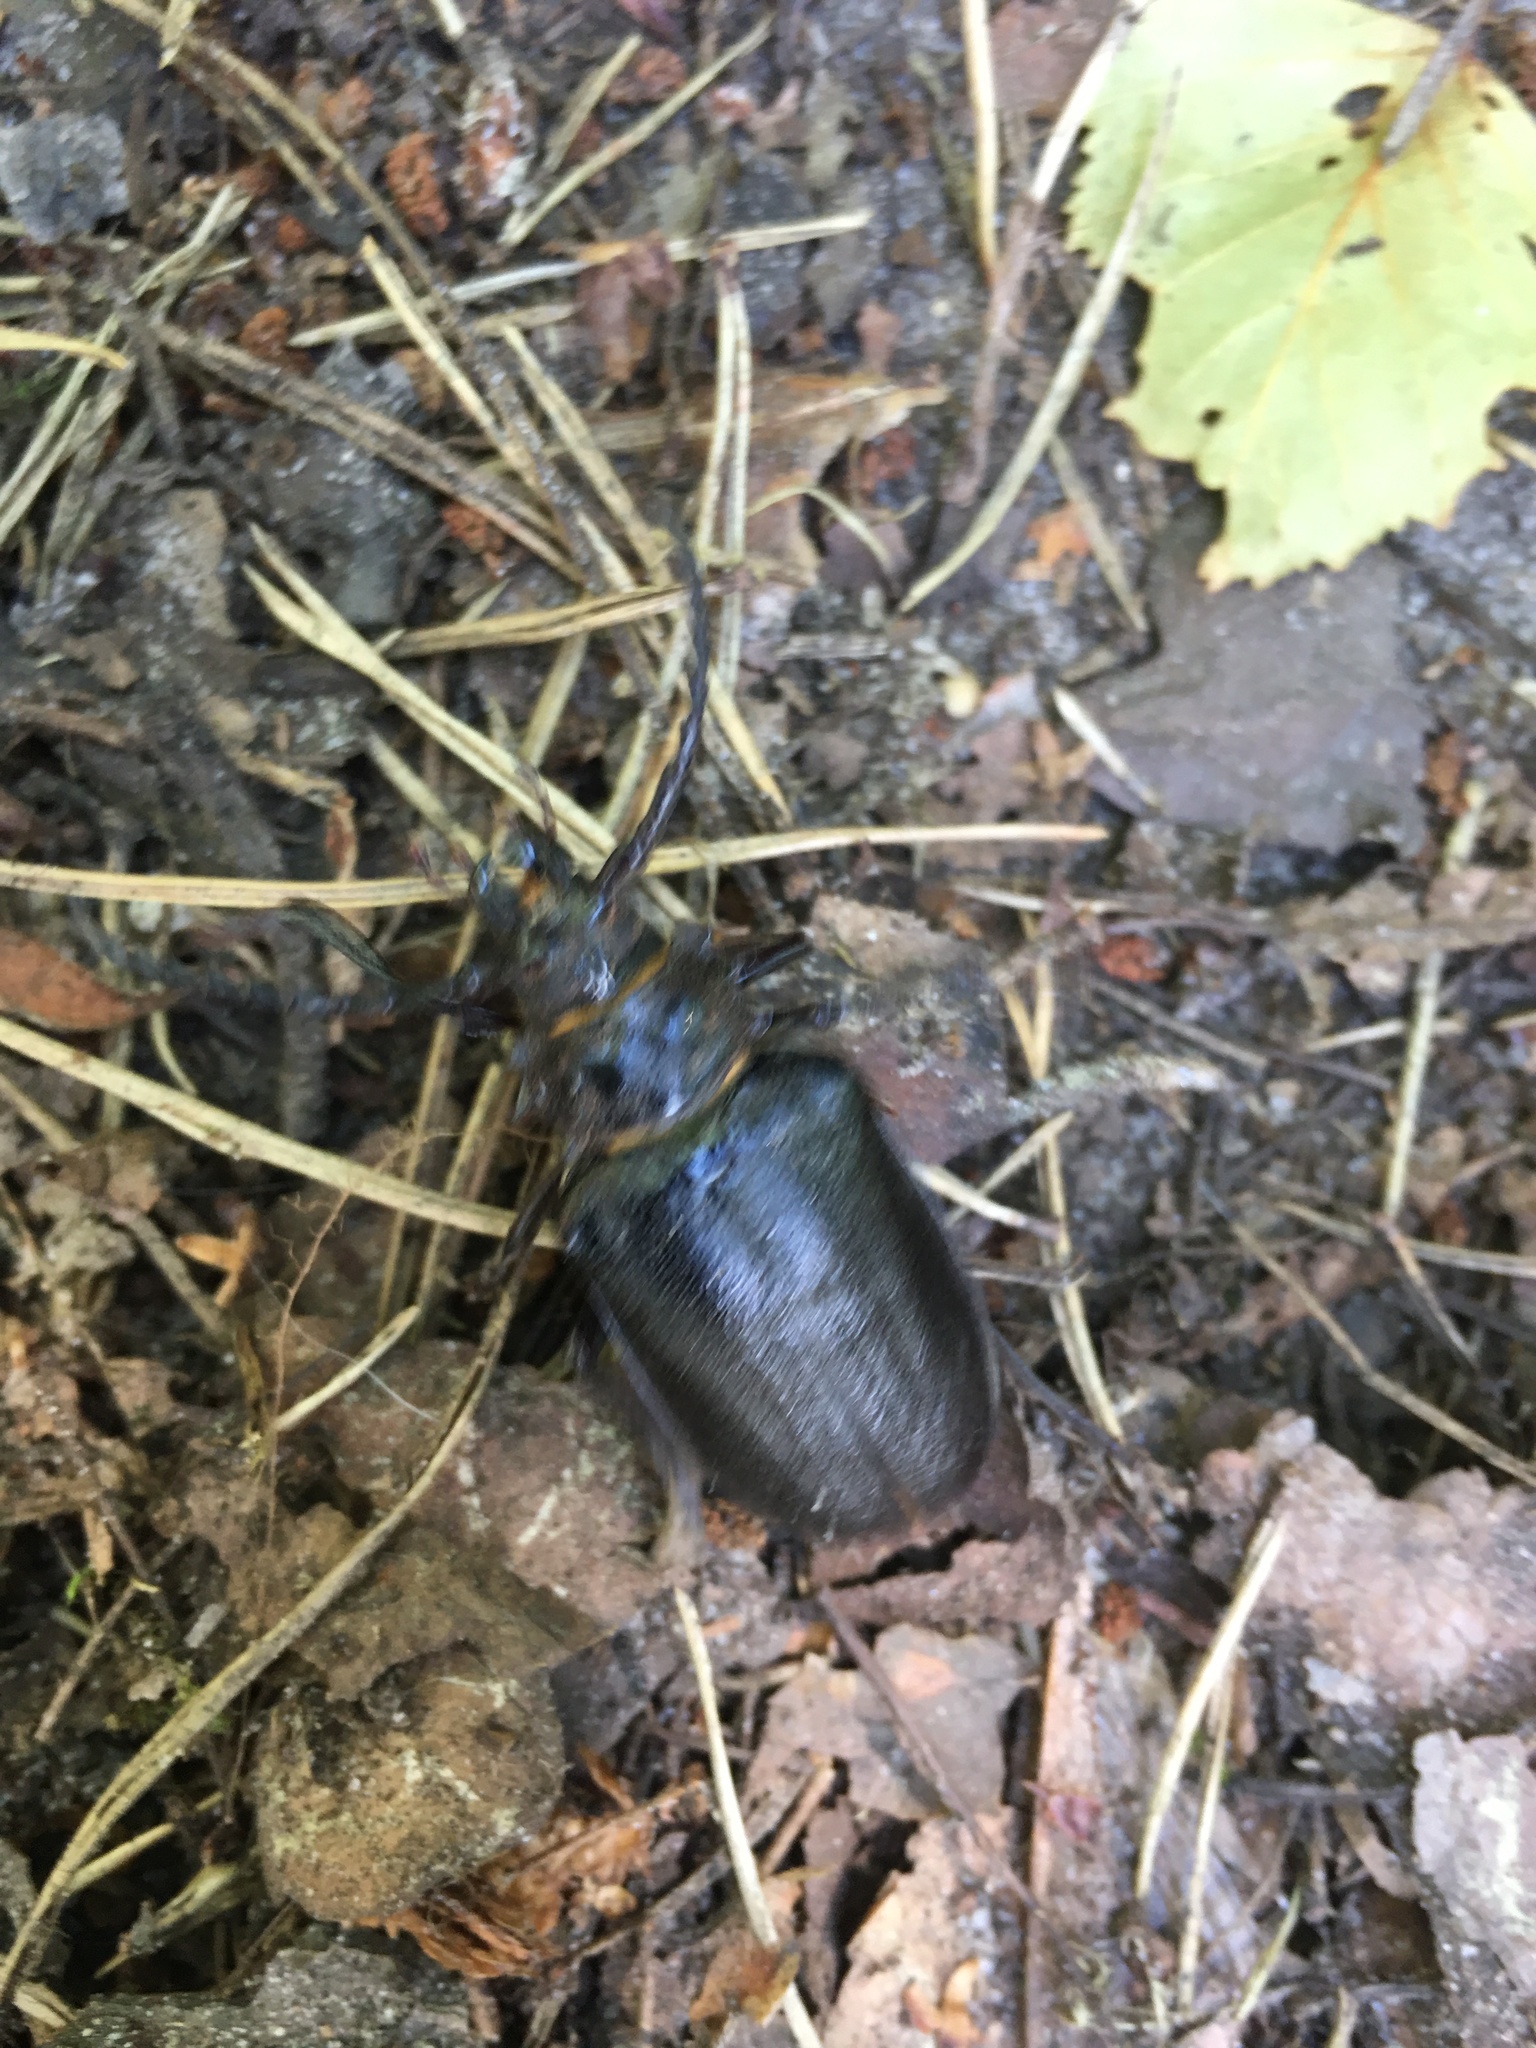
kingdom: Animalia
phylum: Arthropoda
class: Insecta
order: Coleoptera
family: Cerambycidae
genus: Prionus
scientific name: Prionus coriarius
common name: Tanner beetle
